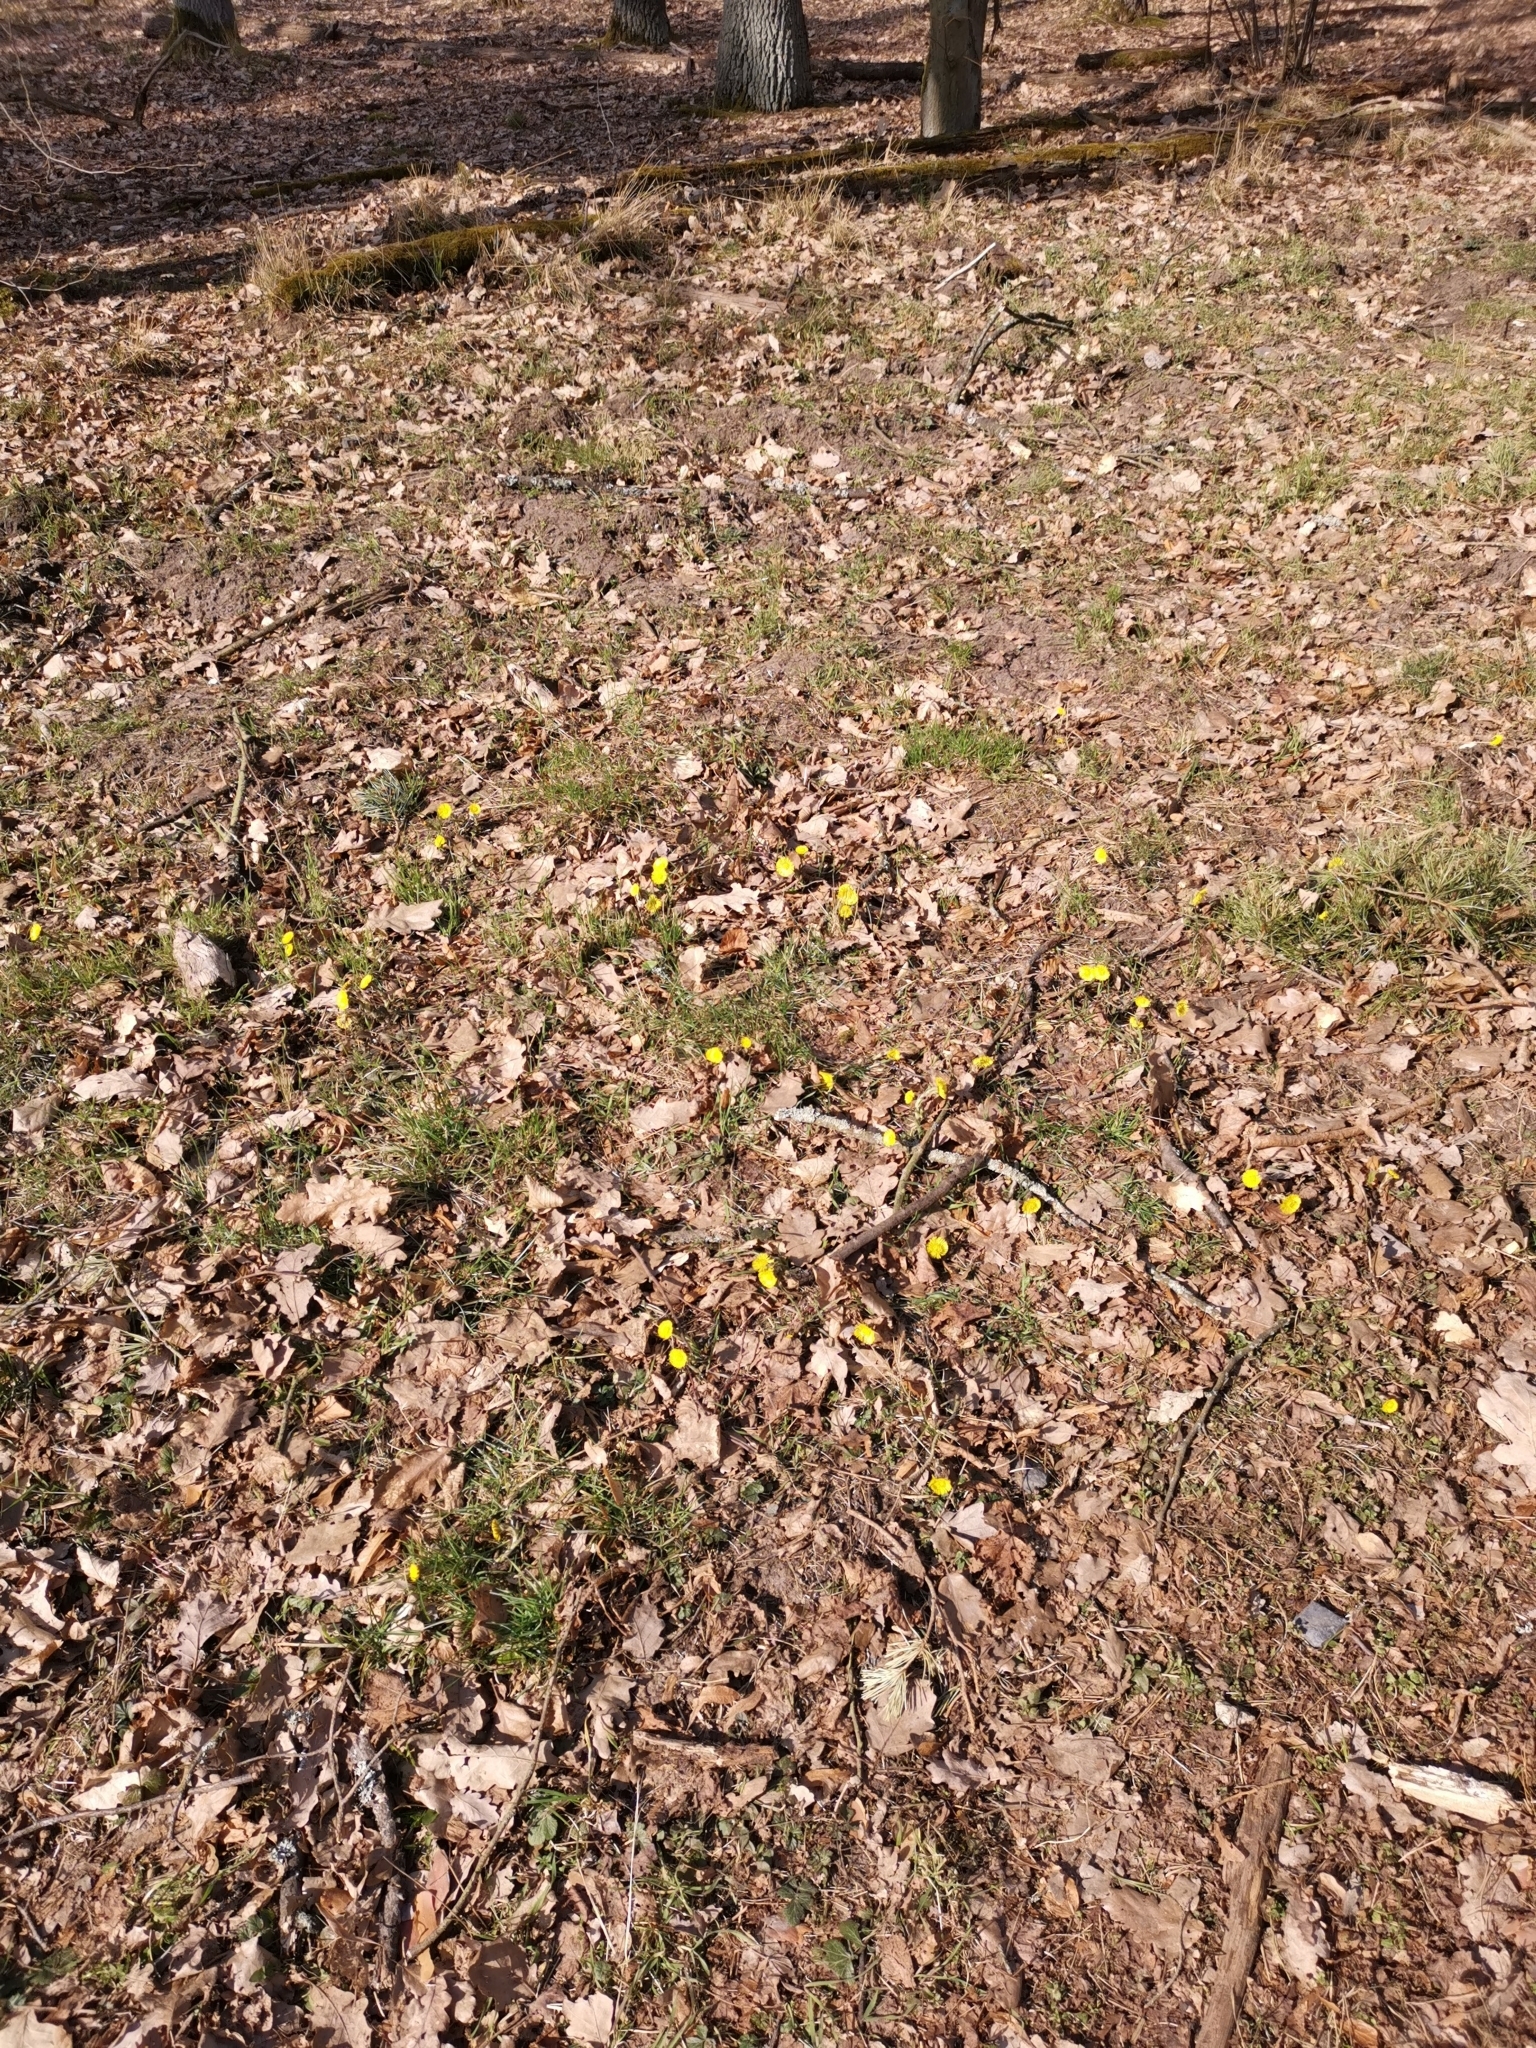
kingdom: Plantae
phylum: Tracheophyta
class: Magnoliopsida
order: Asterales
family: Asteraceae
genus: Tussilago
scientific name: Tussilago farfara
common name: Coltsfoot
